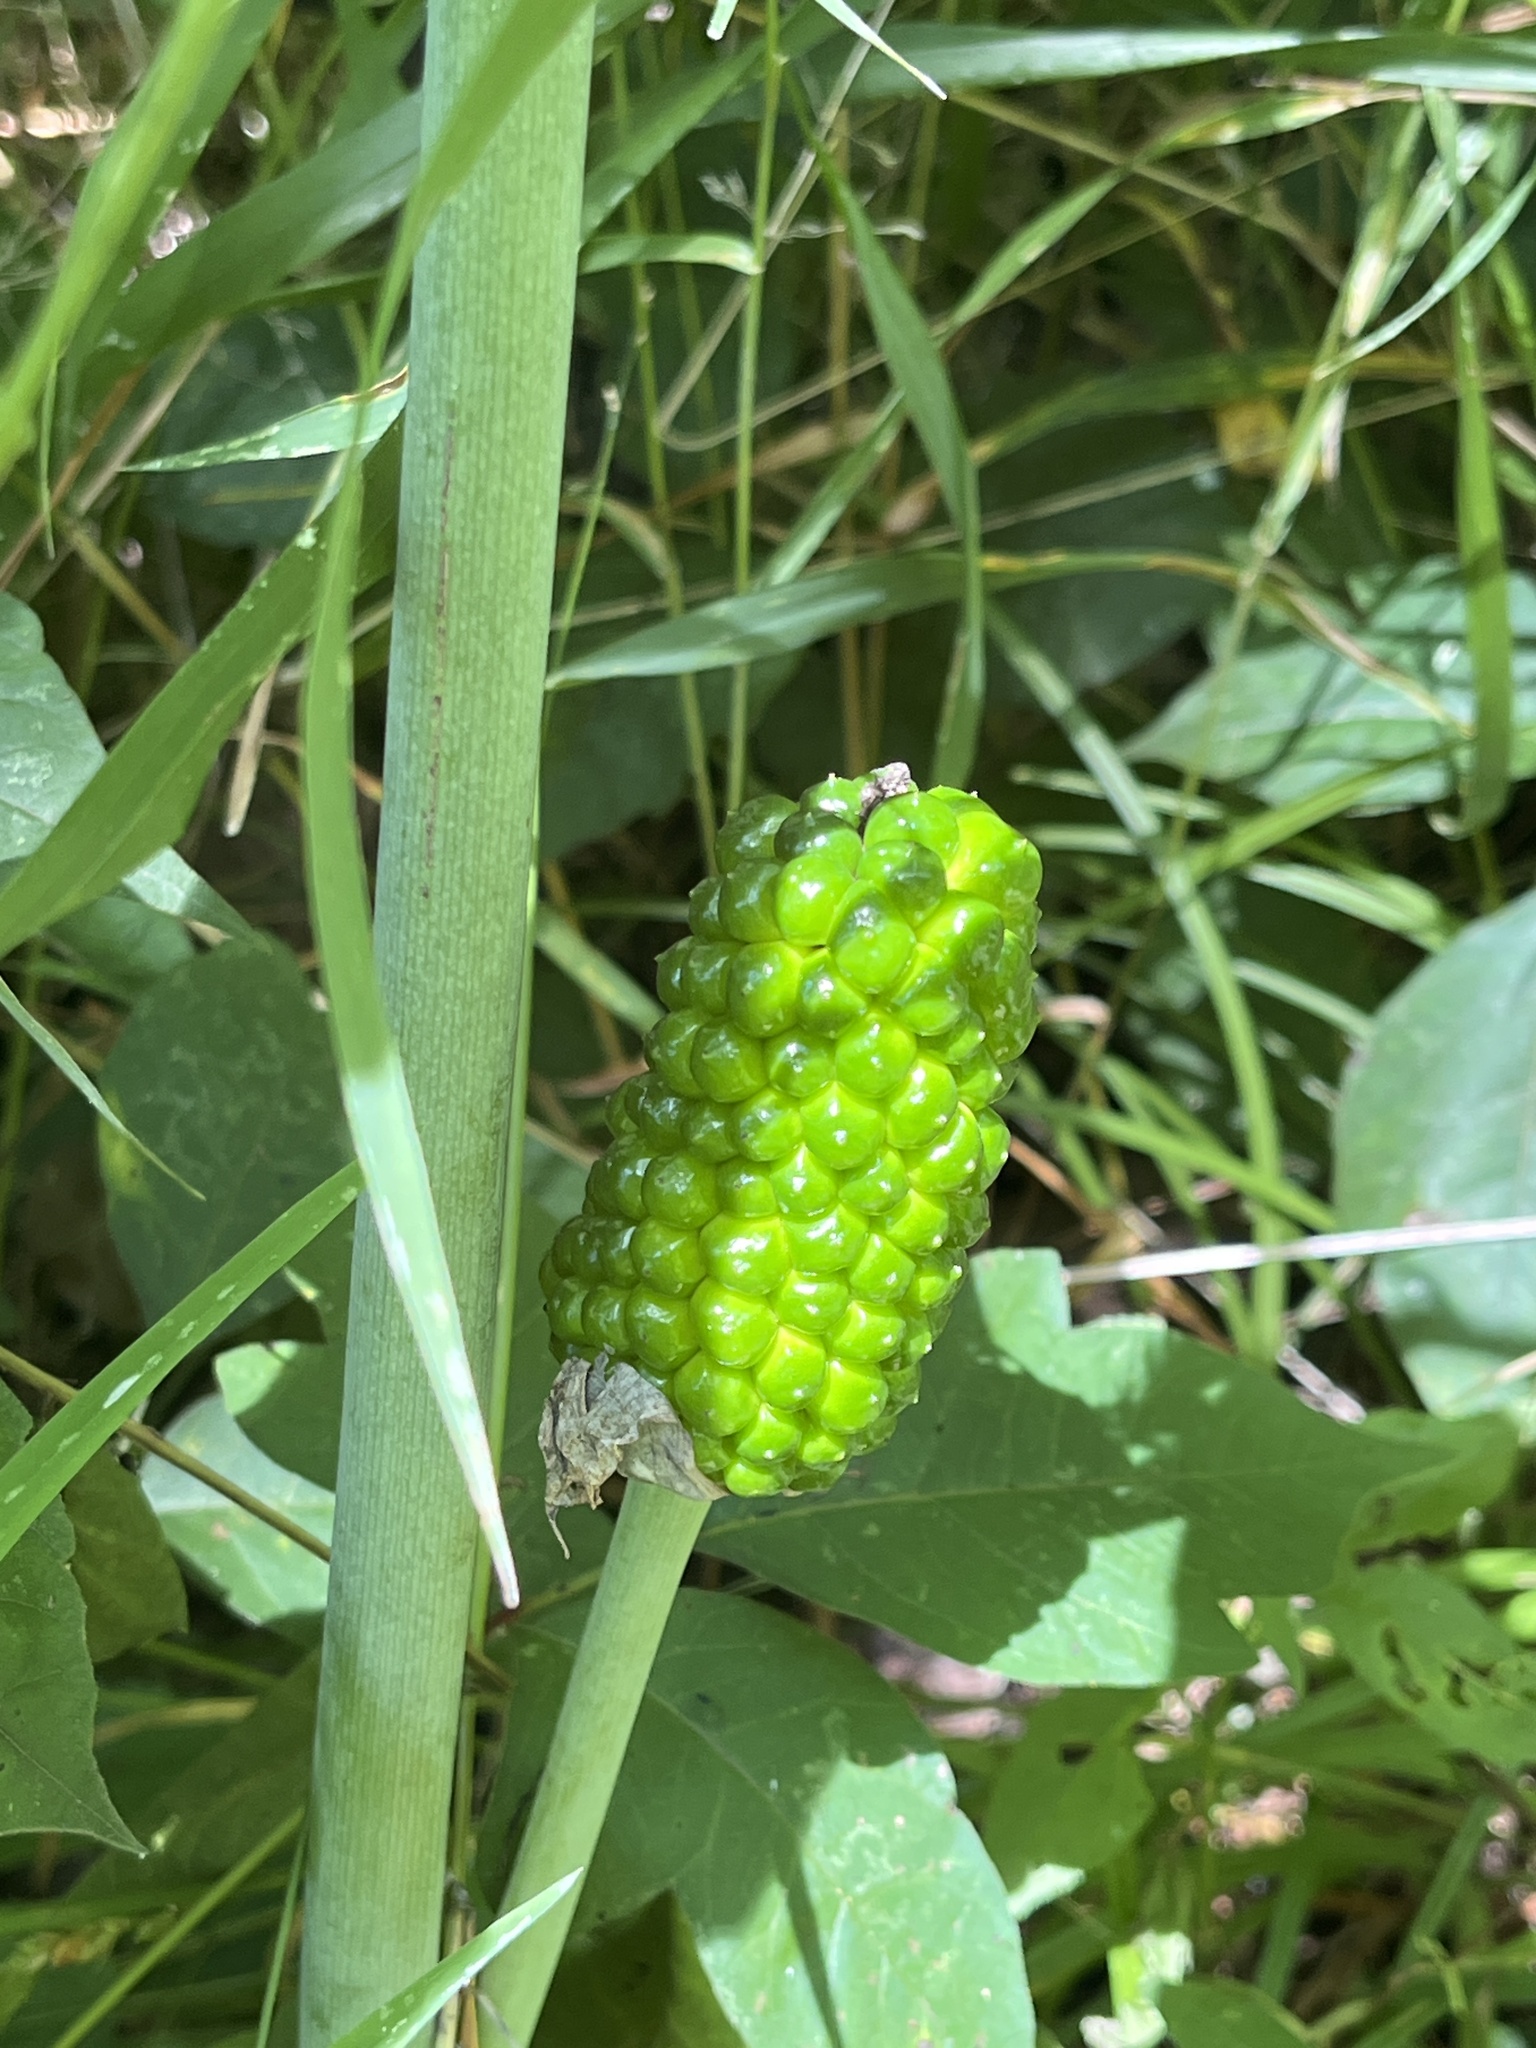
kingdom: Plantae
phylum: Tracheophyta
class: Liliopsida
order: Alismatales
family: Araceae
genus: Arisaema
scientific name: Arisaema dracontium
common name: Dragon-arum
